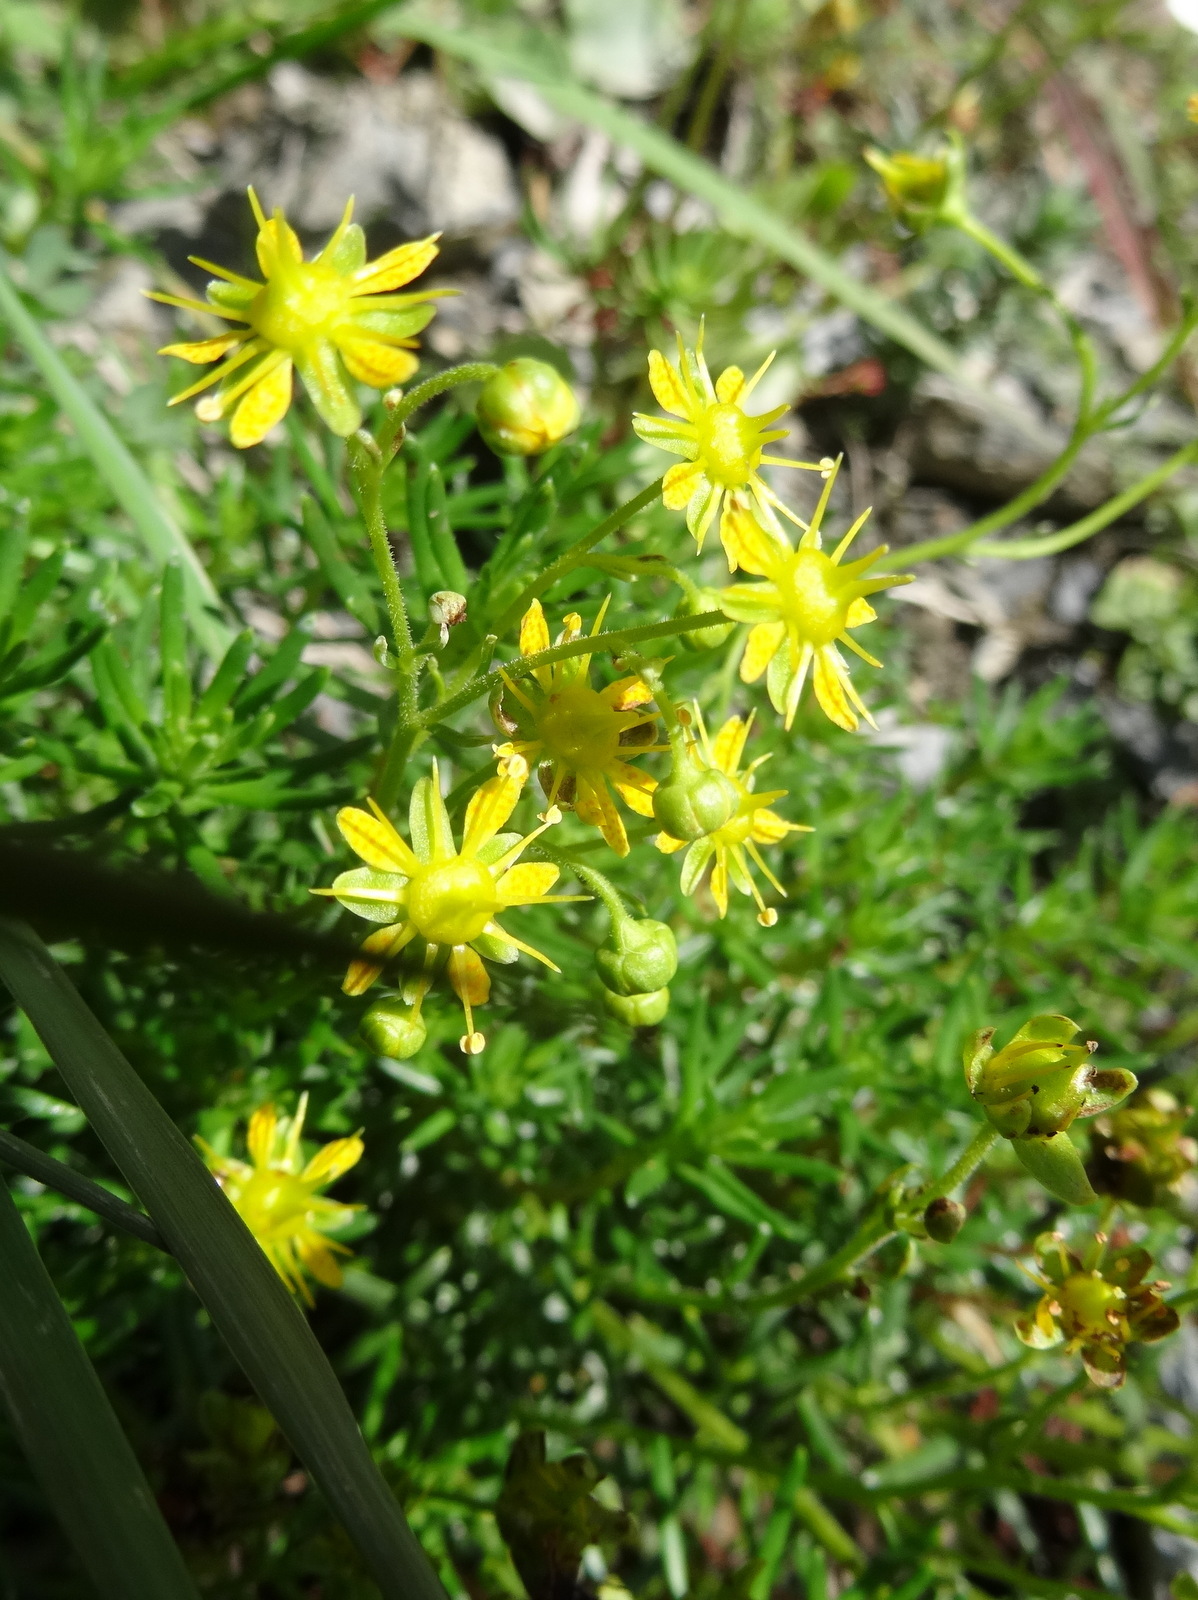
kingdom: Plantae
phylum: Tracheophyta
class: Magnoliopsida
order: Saxifragales
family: Saxifragaceae
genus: Saxifraga
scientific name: Saxifraga aizoides
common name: Yellow mountain saxifrage
